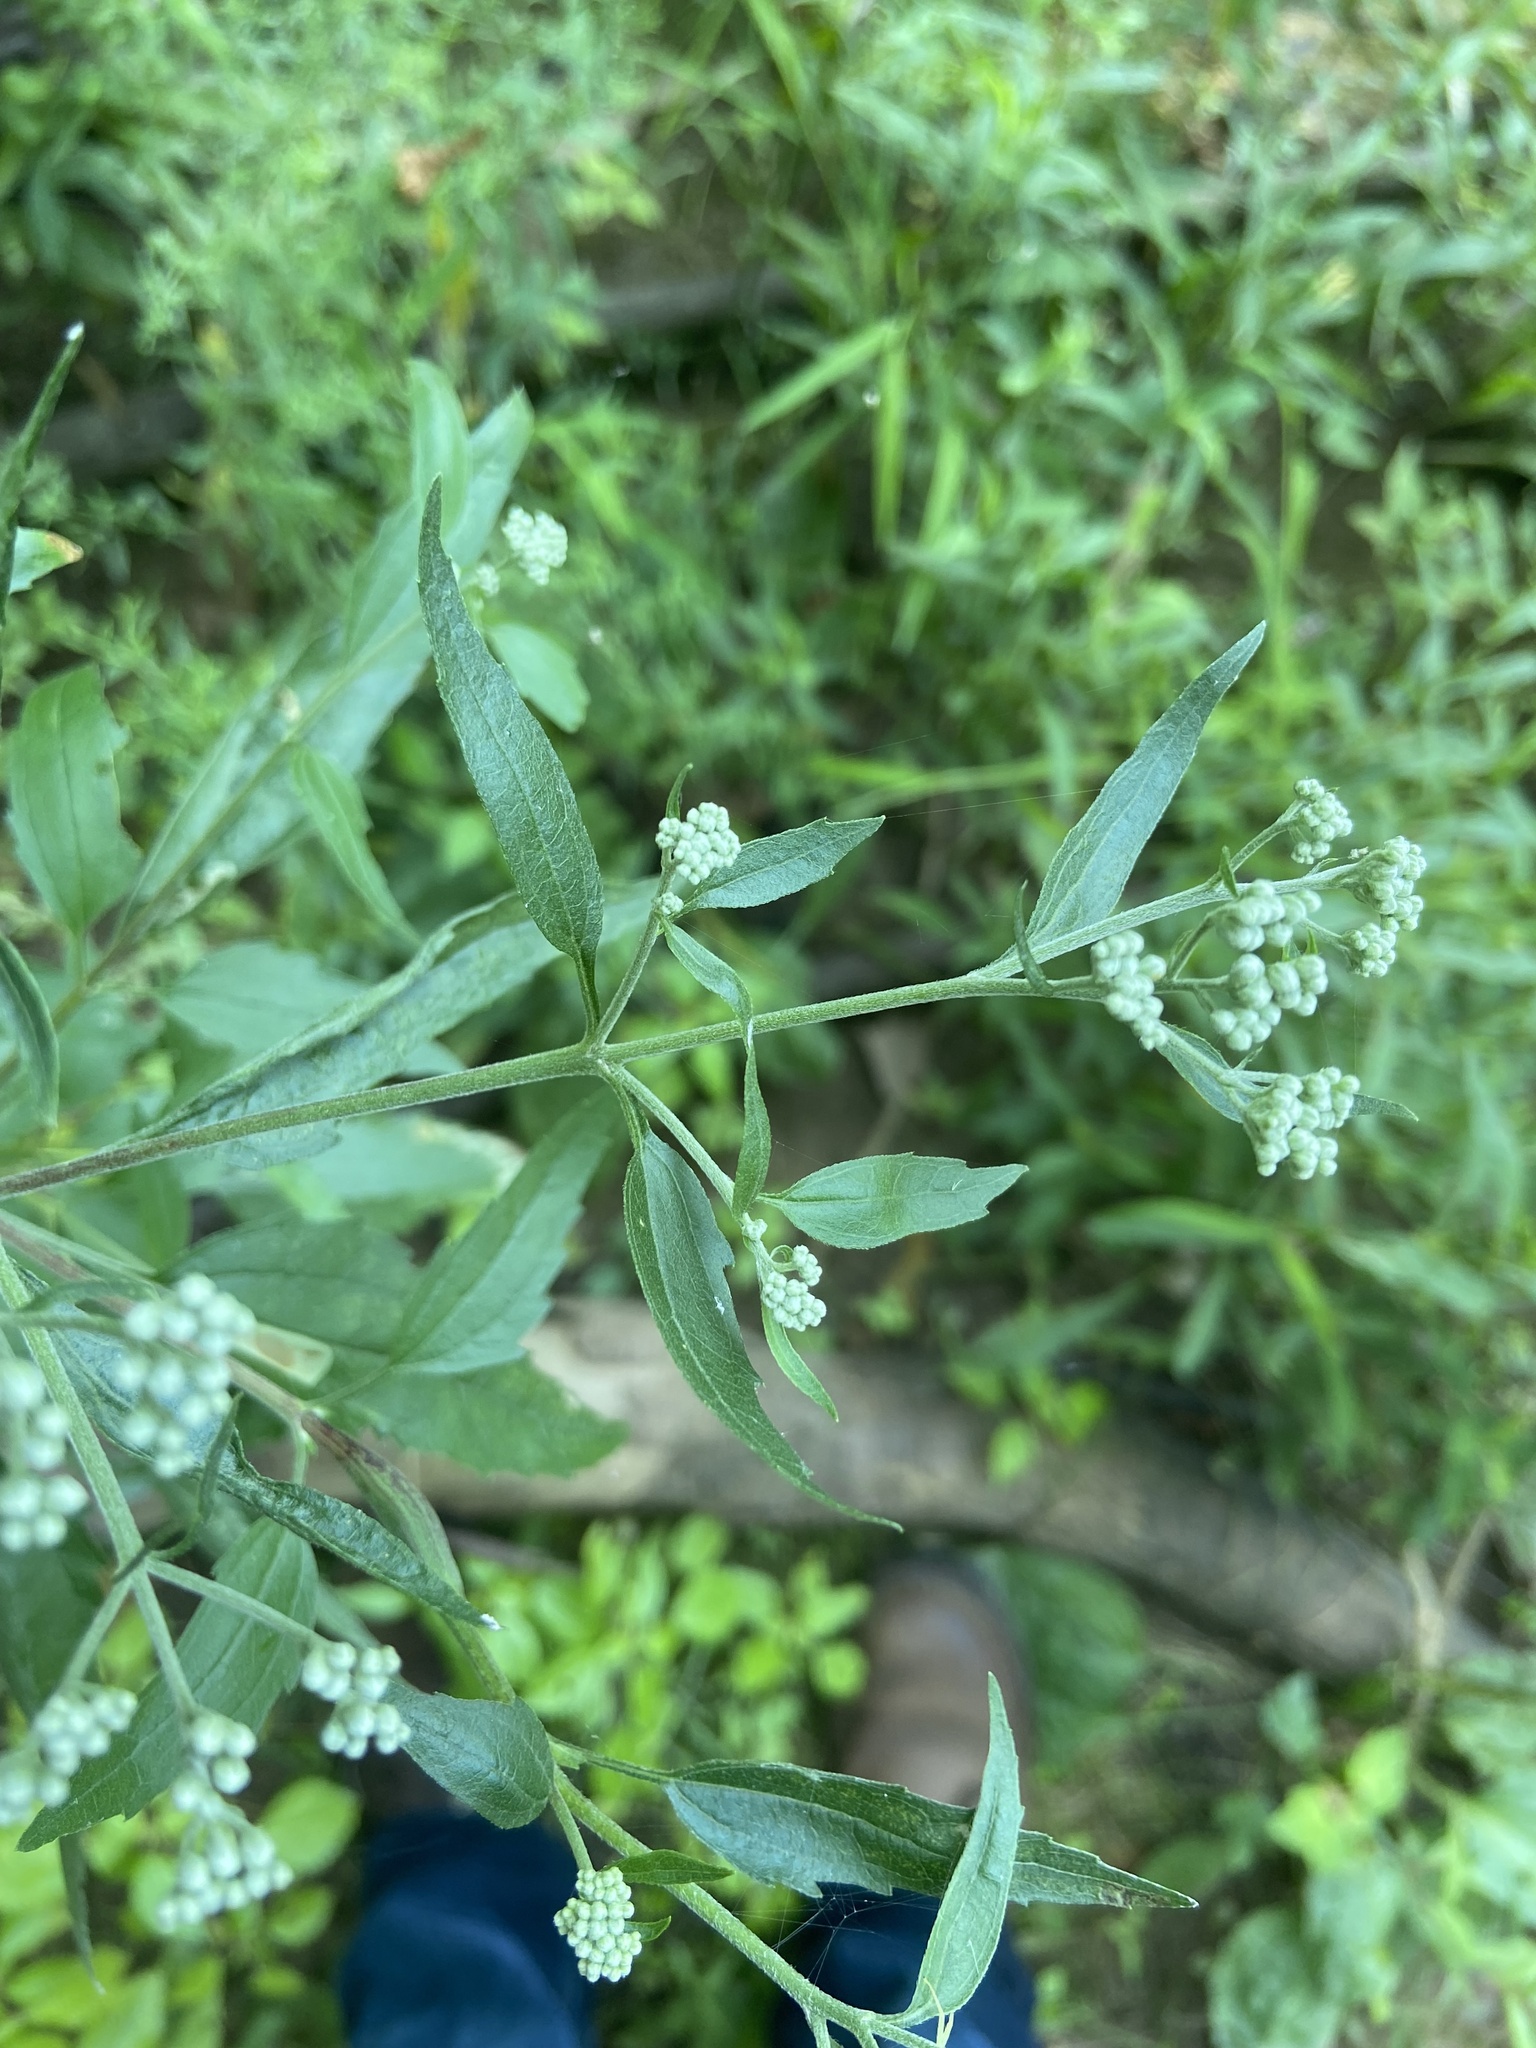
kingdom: Plantae
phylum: Tracheophyta
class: Magnoliopsida
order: Asterales
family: Asteraceae
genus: Eupatorium
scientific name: Eupatorium serotinum
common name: Late boneset
